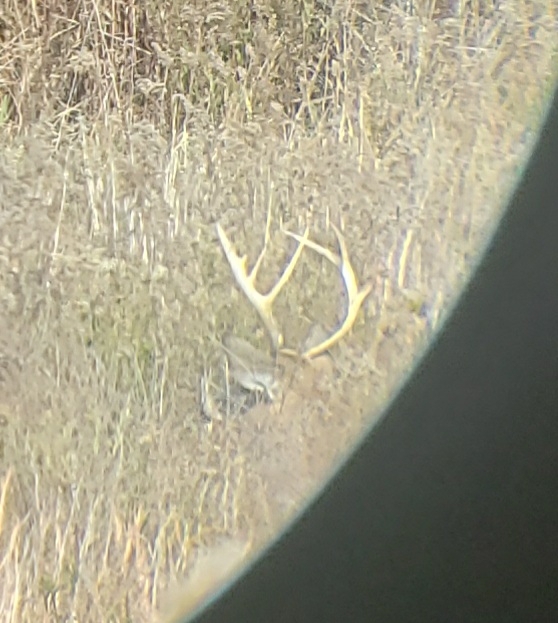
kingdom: Animalia
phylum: Chordata
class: Mammalia
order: Artiodactyla
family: Cervidae
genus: Odocoileus
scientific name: Odocoileus virginianus
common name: White-tailed deer
